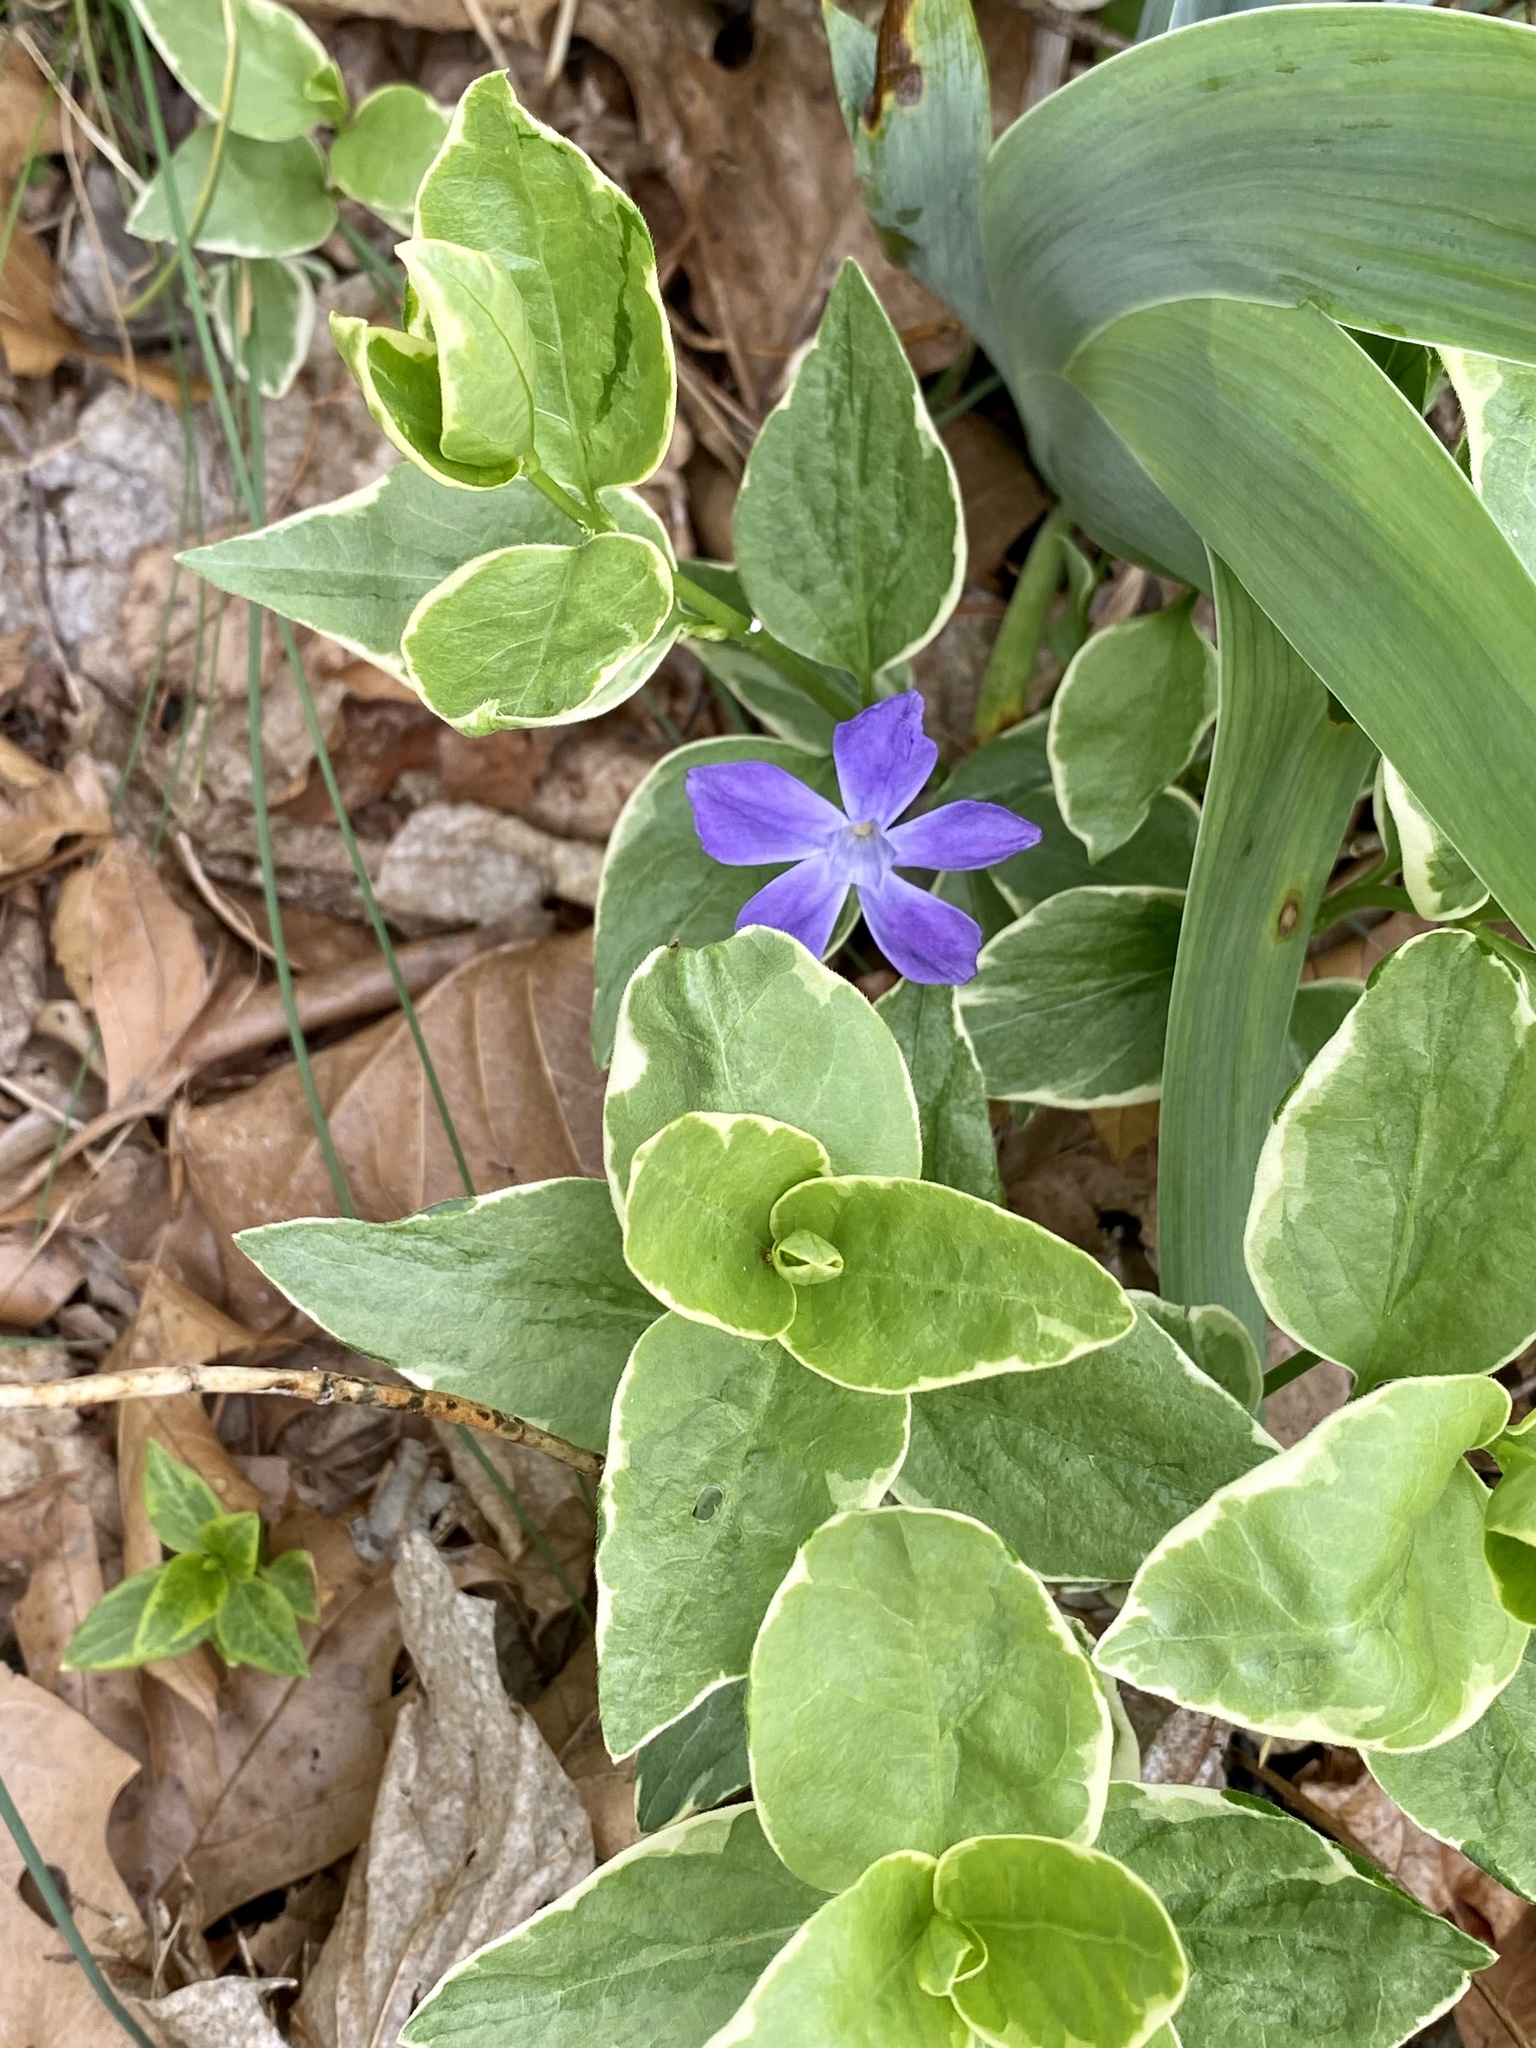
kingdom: Plantae
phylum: Tracheophyta
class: Magnoliopsida
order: Gentianales
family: Apocynaceae
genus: Vinca
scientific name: Vinca major
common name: Greater periwinkle
